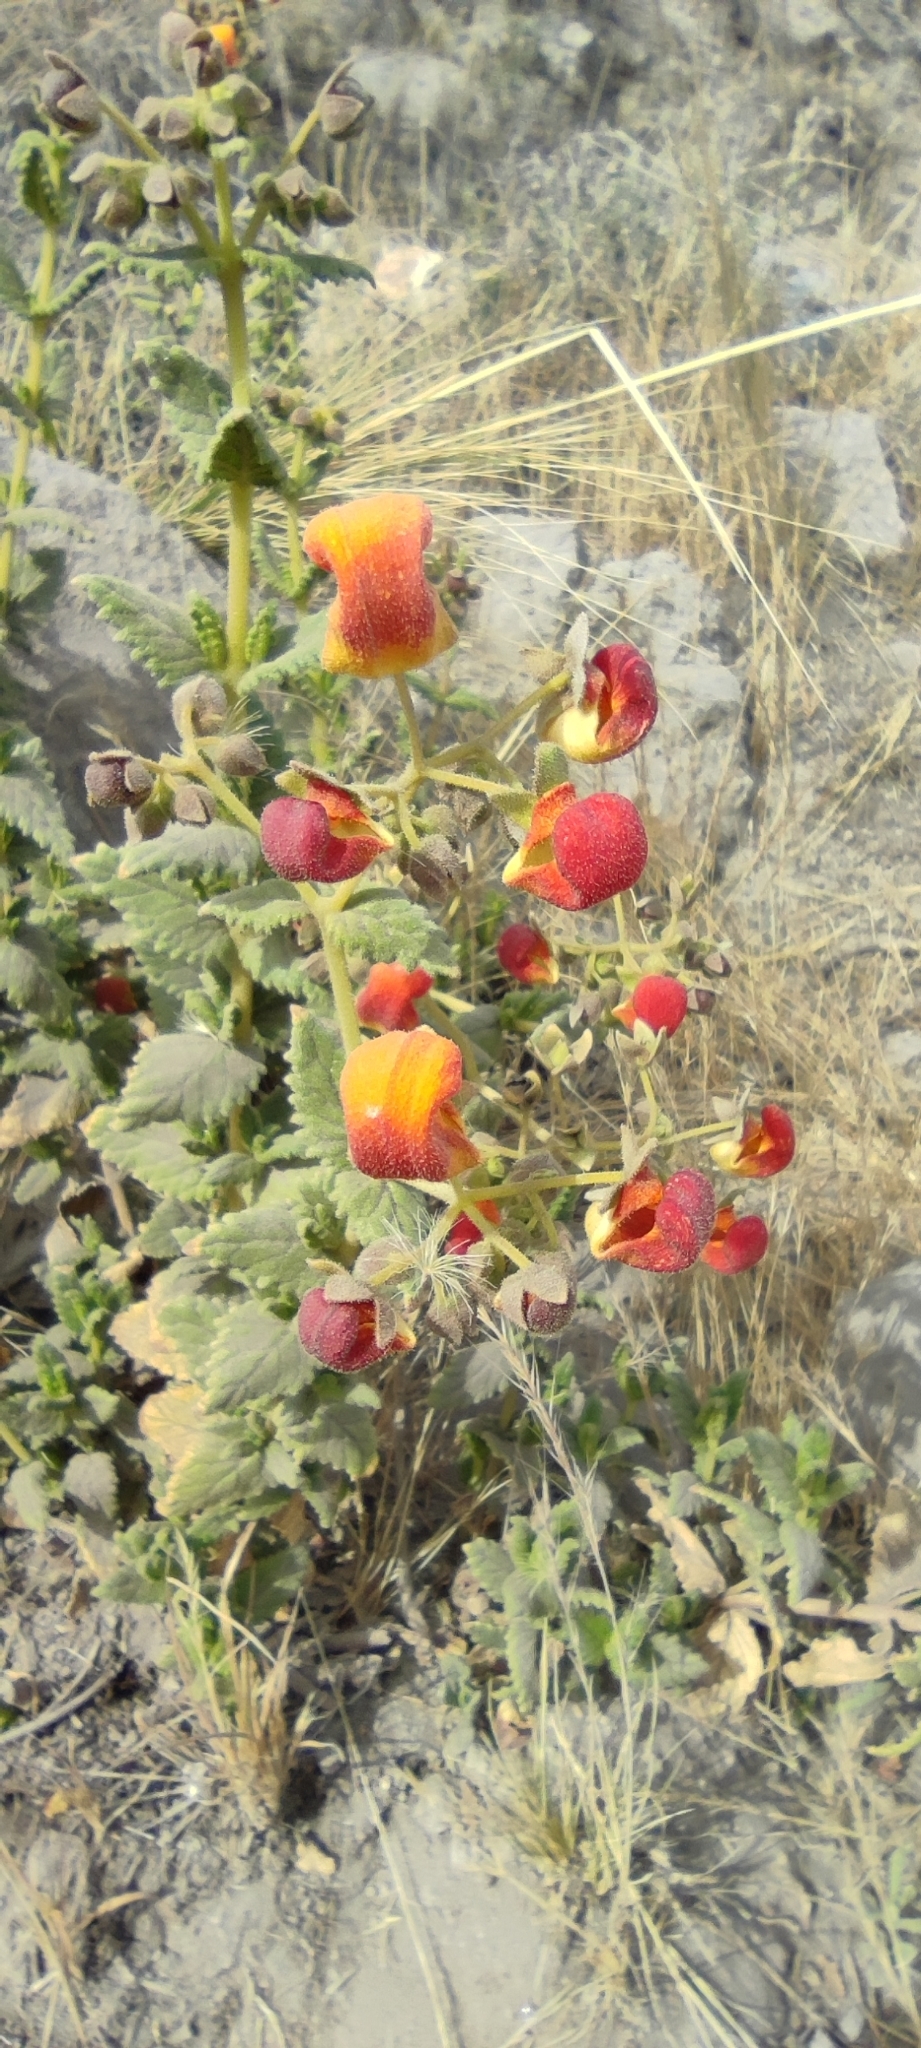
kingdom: Plantae
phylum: Tracheophyta
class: Magnoliopsida
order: Lamiales
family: Calceolariaceae
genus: Calceolaria
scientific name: Calceolaria pisacomensis
